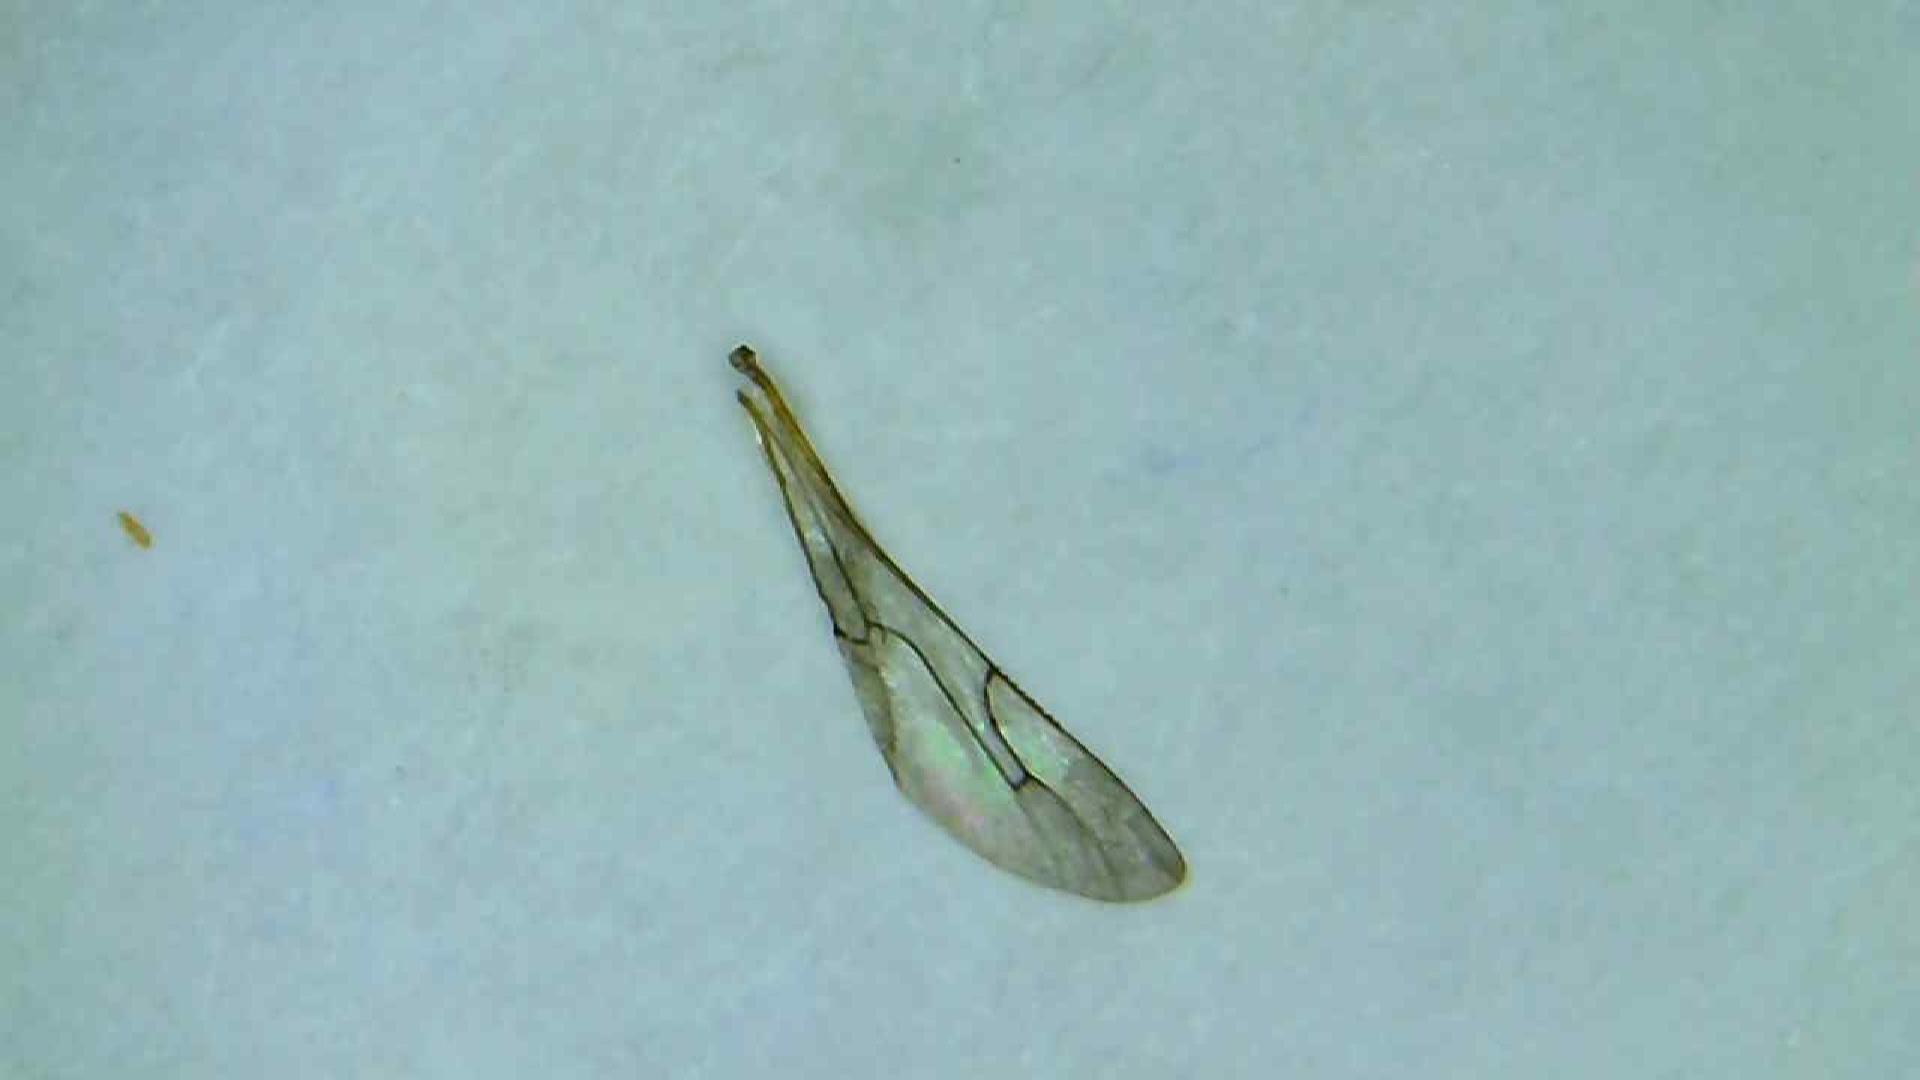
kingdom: Animalia
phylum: Arthropoda
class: Insecta
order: Hymenoptera
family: Crabronidae
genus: Mimumesa
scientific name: Mimumesa nigra
